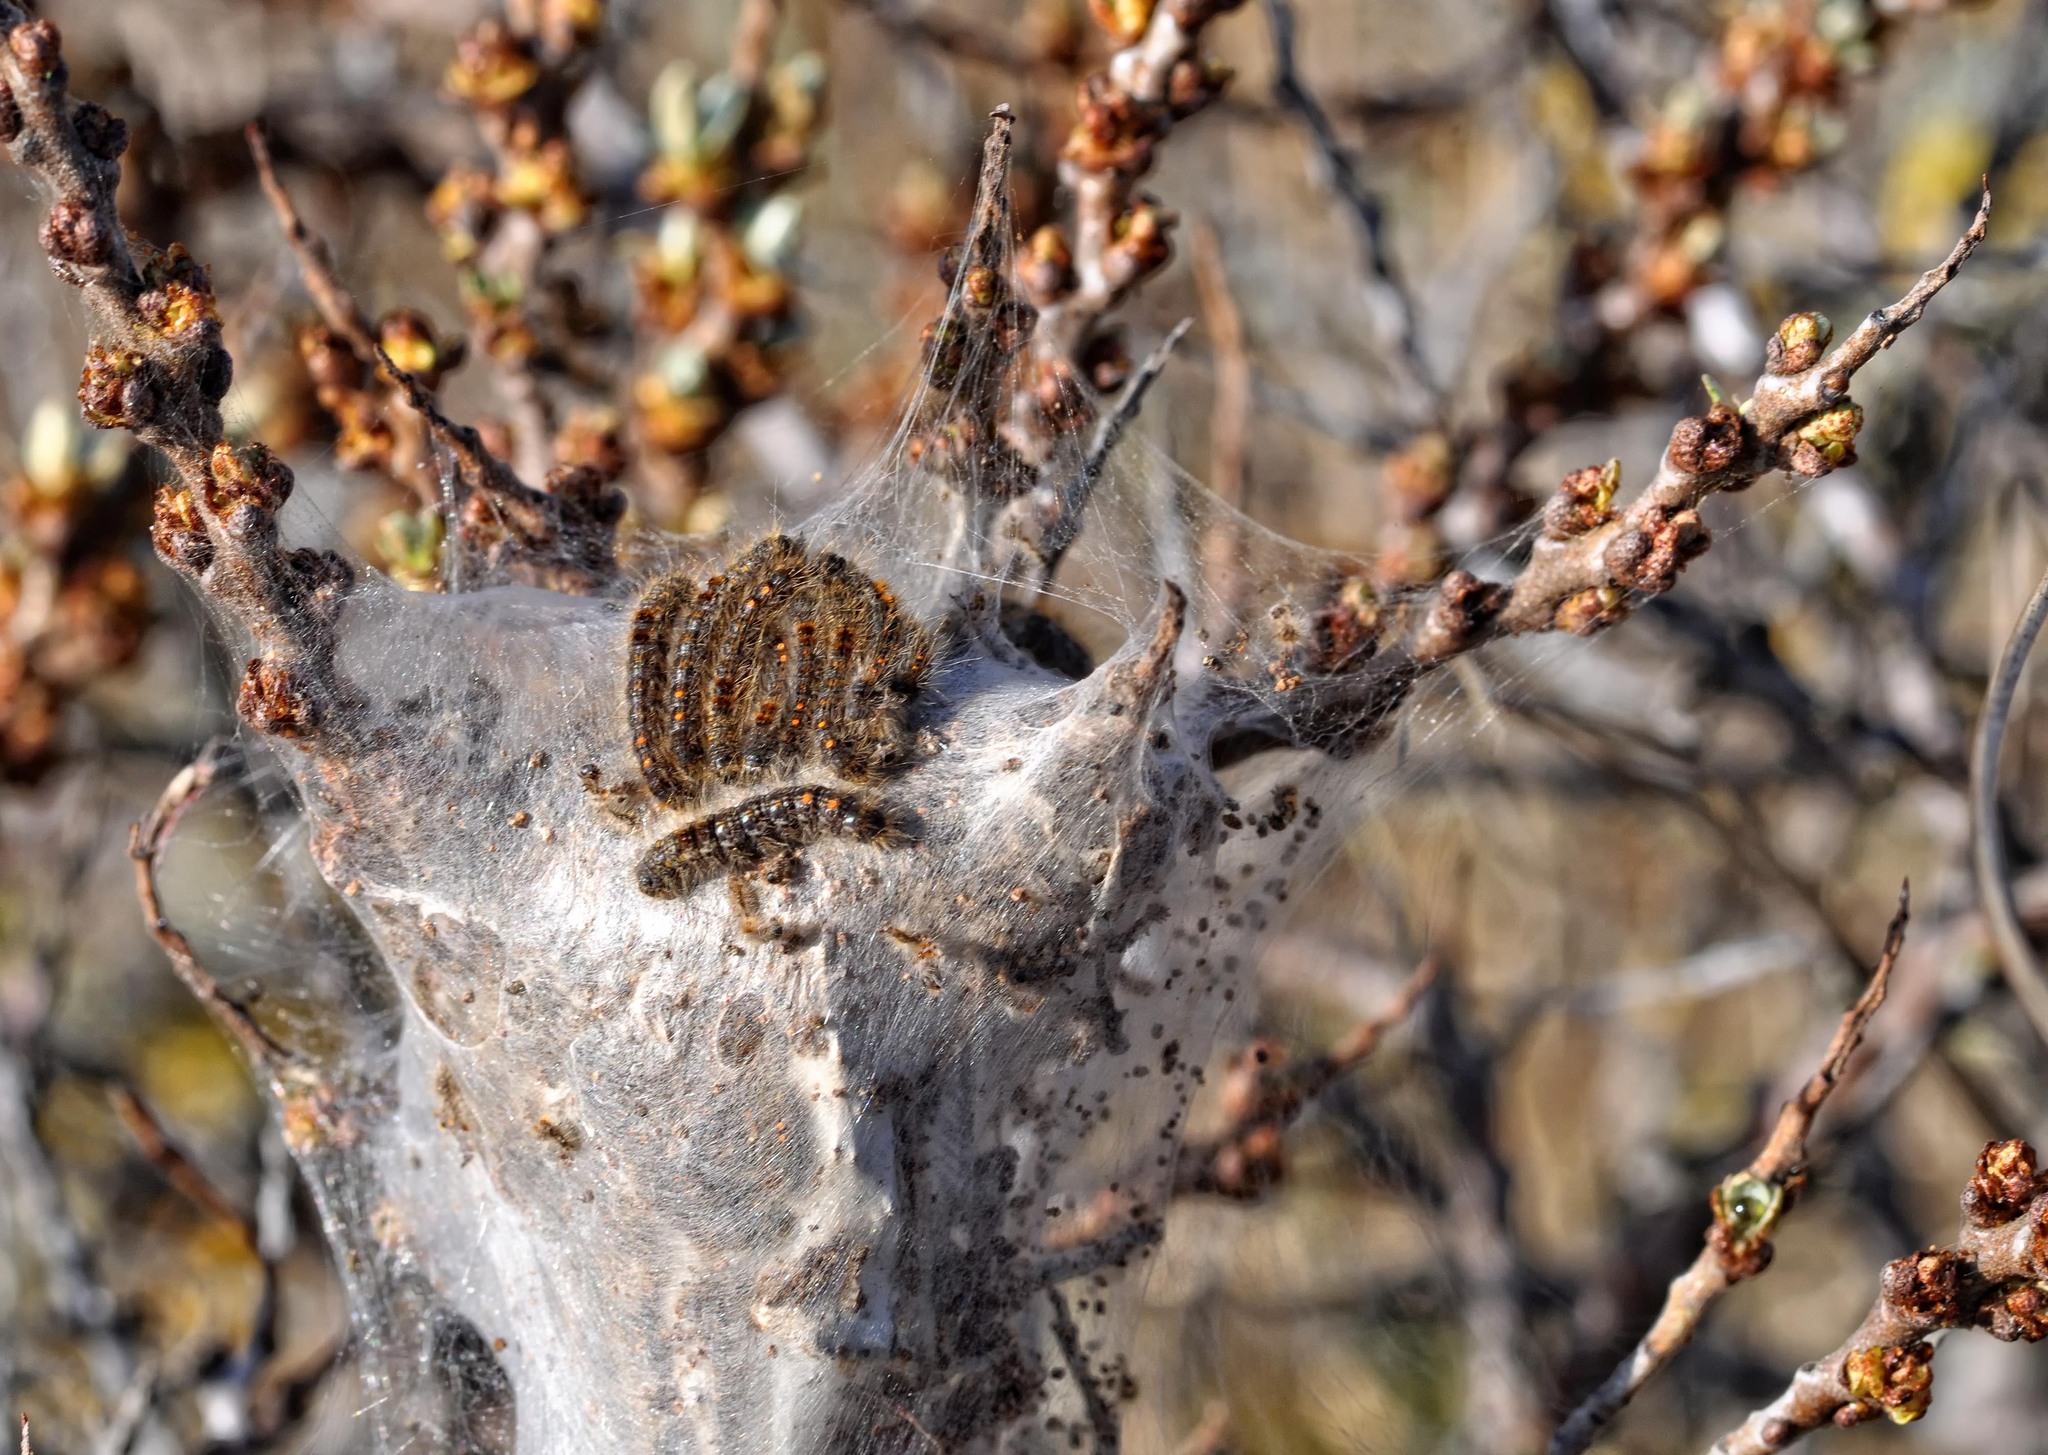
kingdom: Animalia
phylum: Arthropoda
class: Insecta
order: Lepidoptera
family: Erebidae
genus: Euproctis
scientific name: Euproctis chrysorrhoea
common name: Brown-tail
